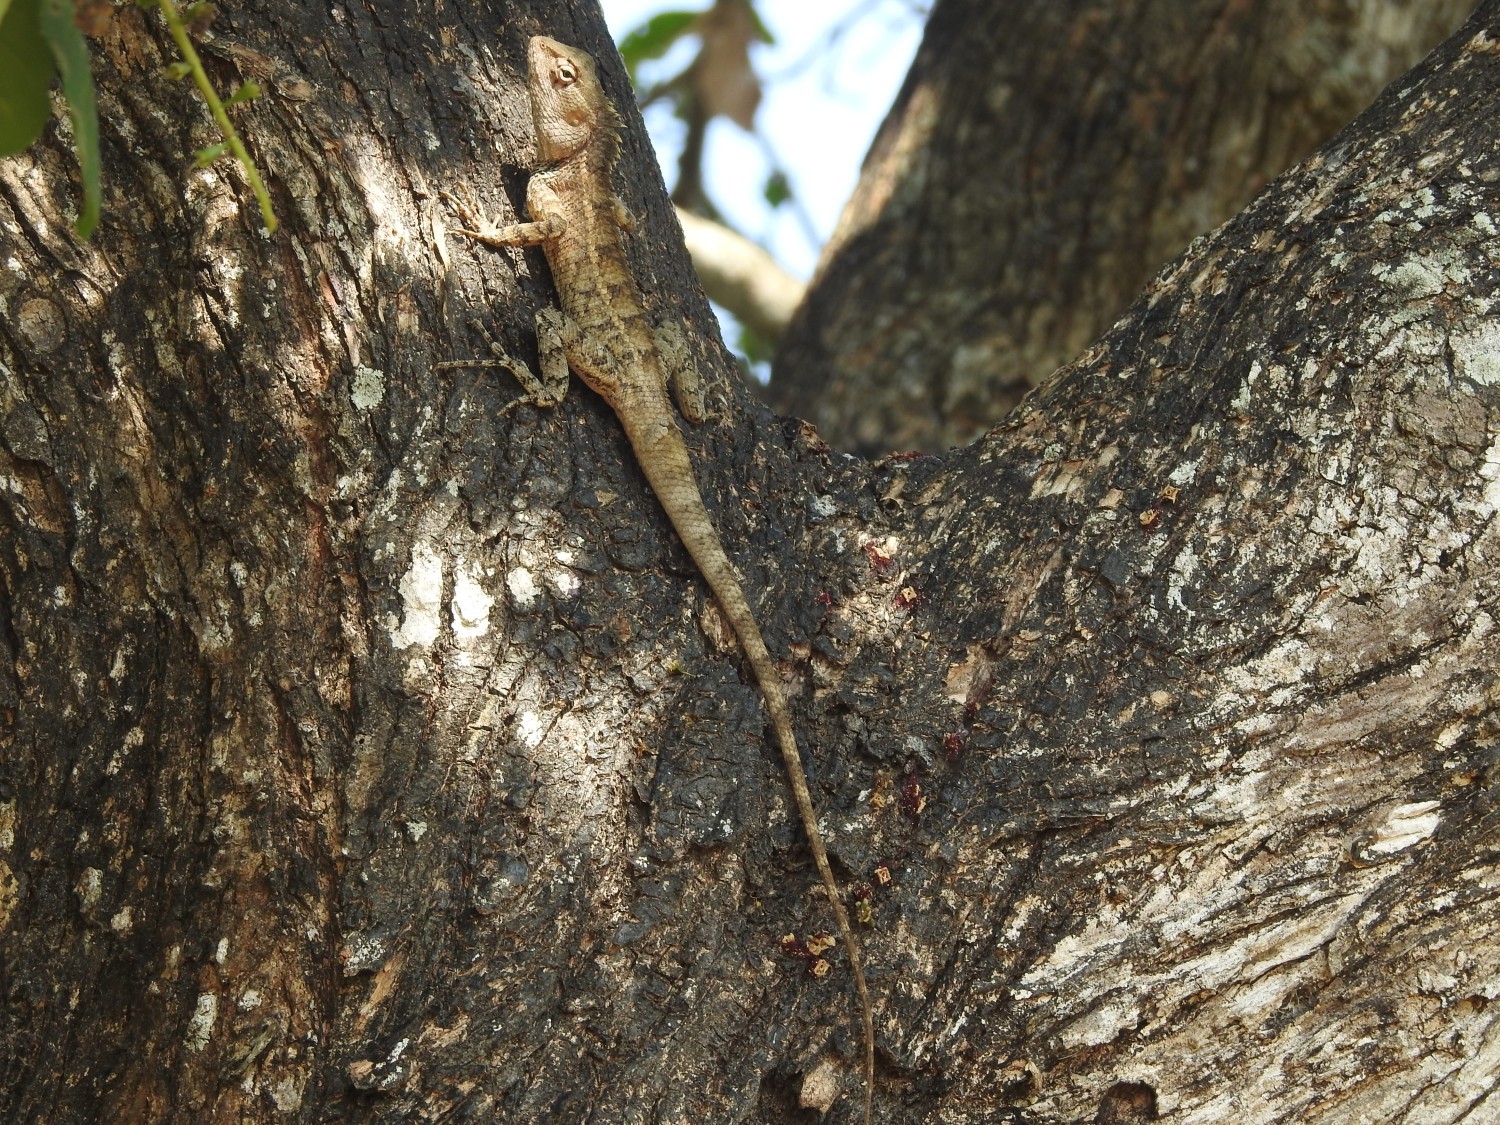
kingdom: Animalia
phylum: Chordata
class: Squamata
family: Agamidae
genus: Calotes
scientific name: Calotes versicolor
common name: Oriental garden lizard
